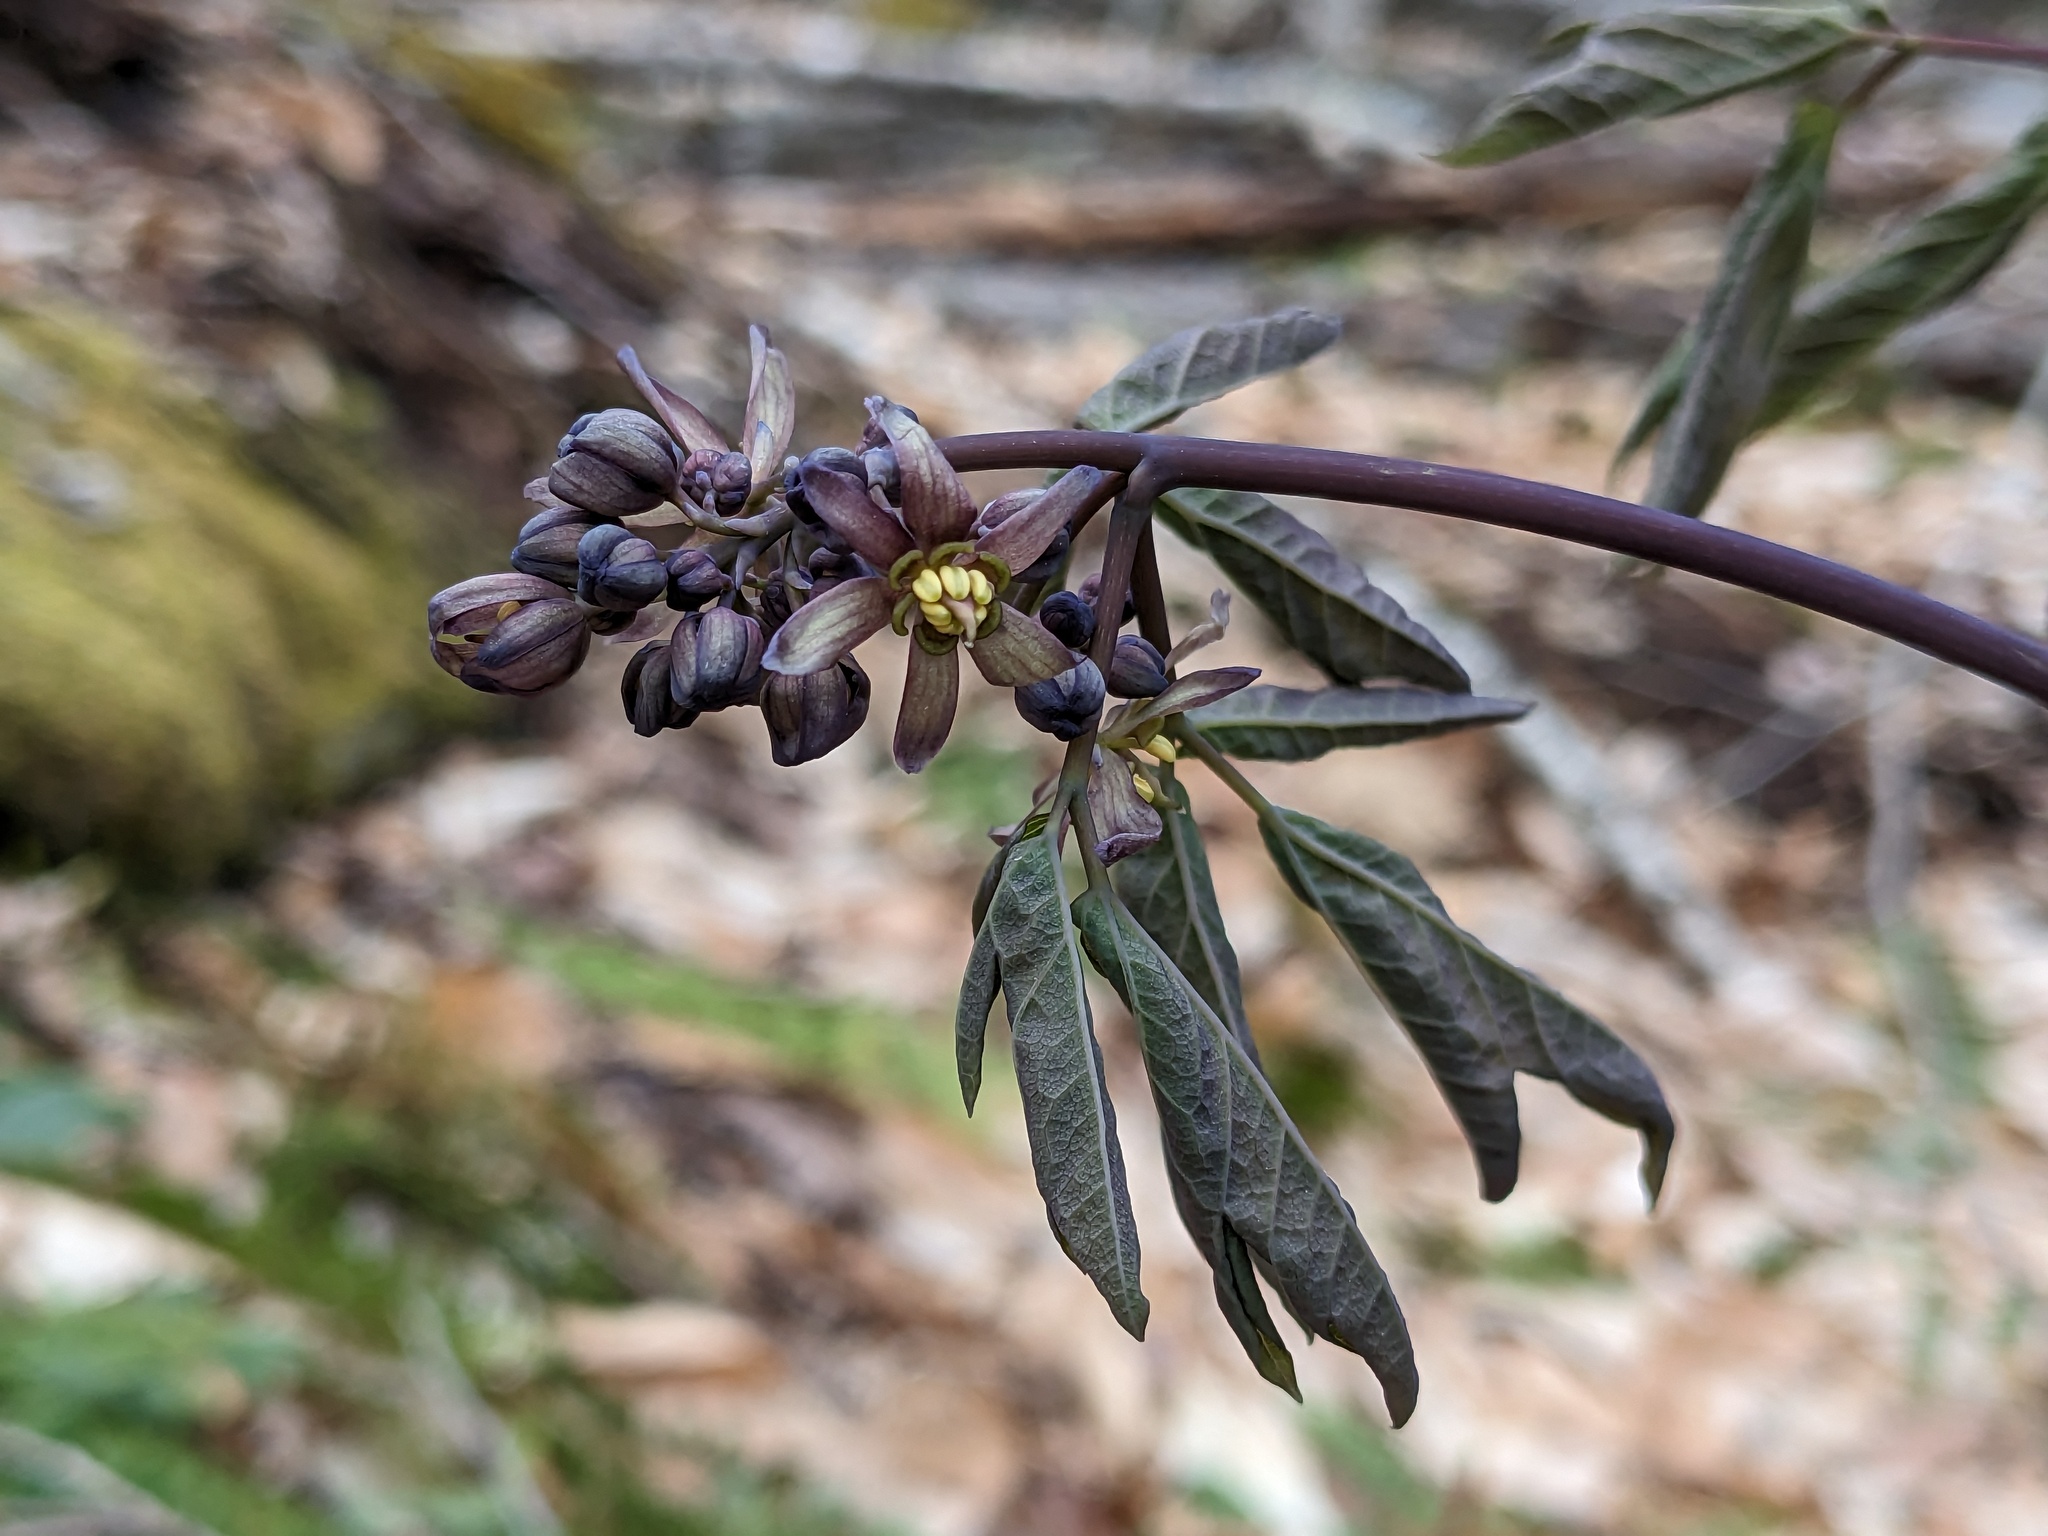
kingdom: Plantae
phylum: Tracheophyta
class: Magnoliopsida
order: Ranunculales
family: Berberidaceae
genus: Caulophyllum
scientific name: Caulophyllum giganteum
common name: Blue cohosh
